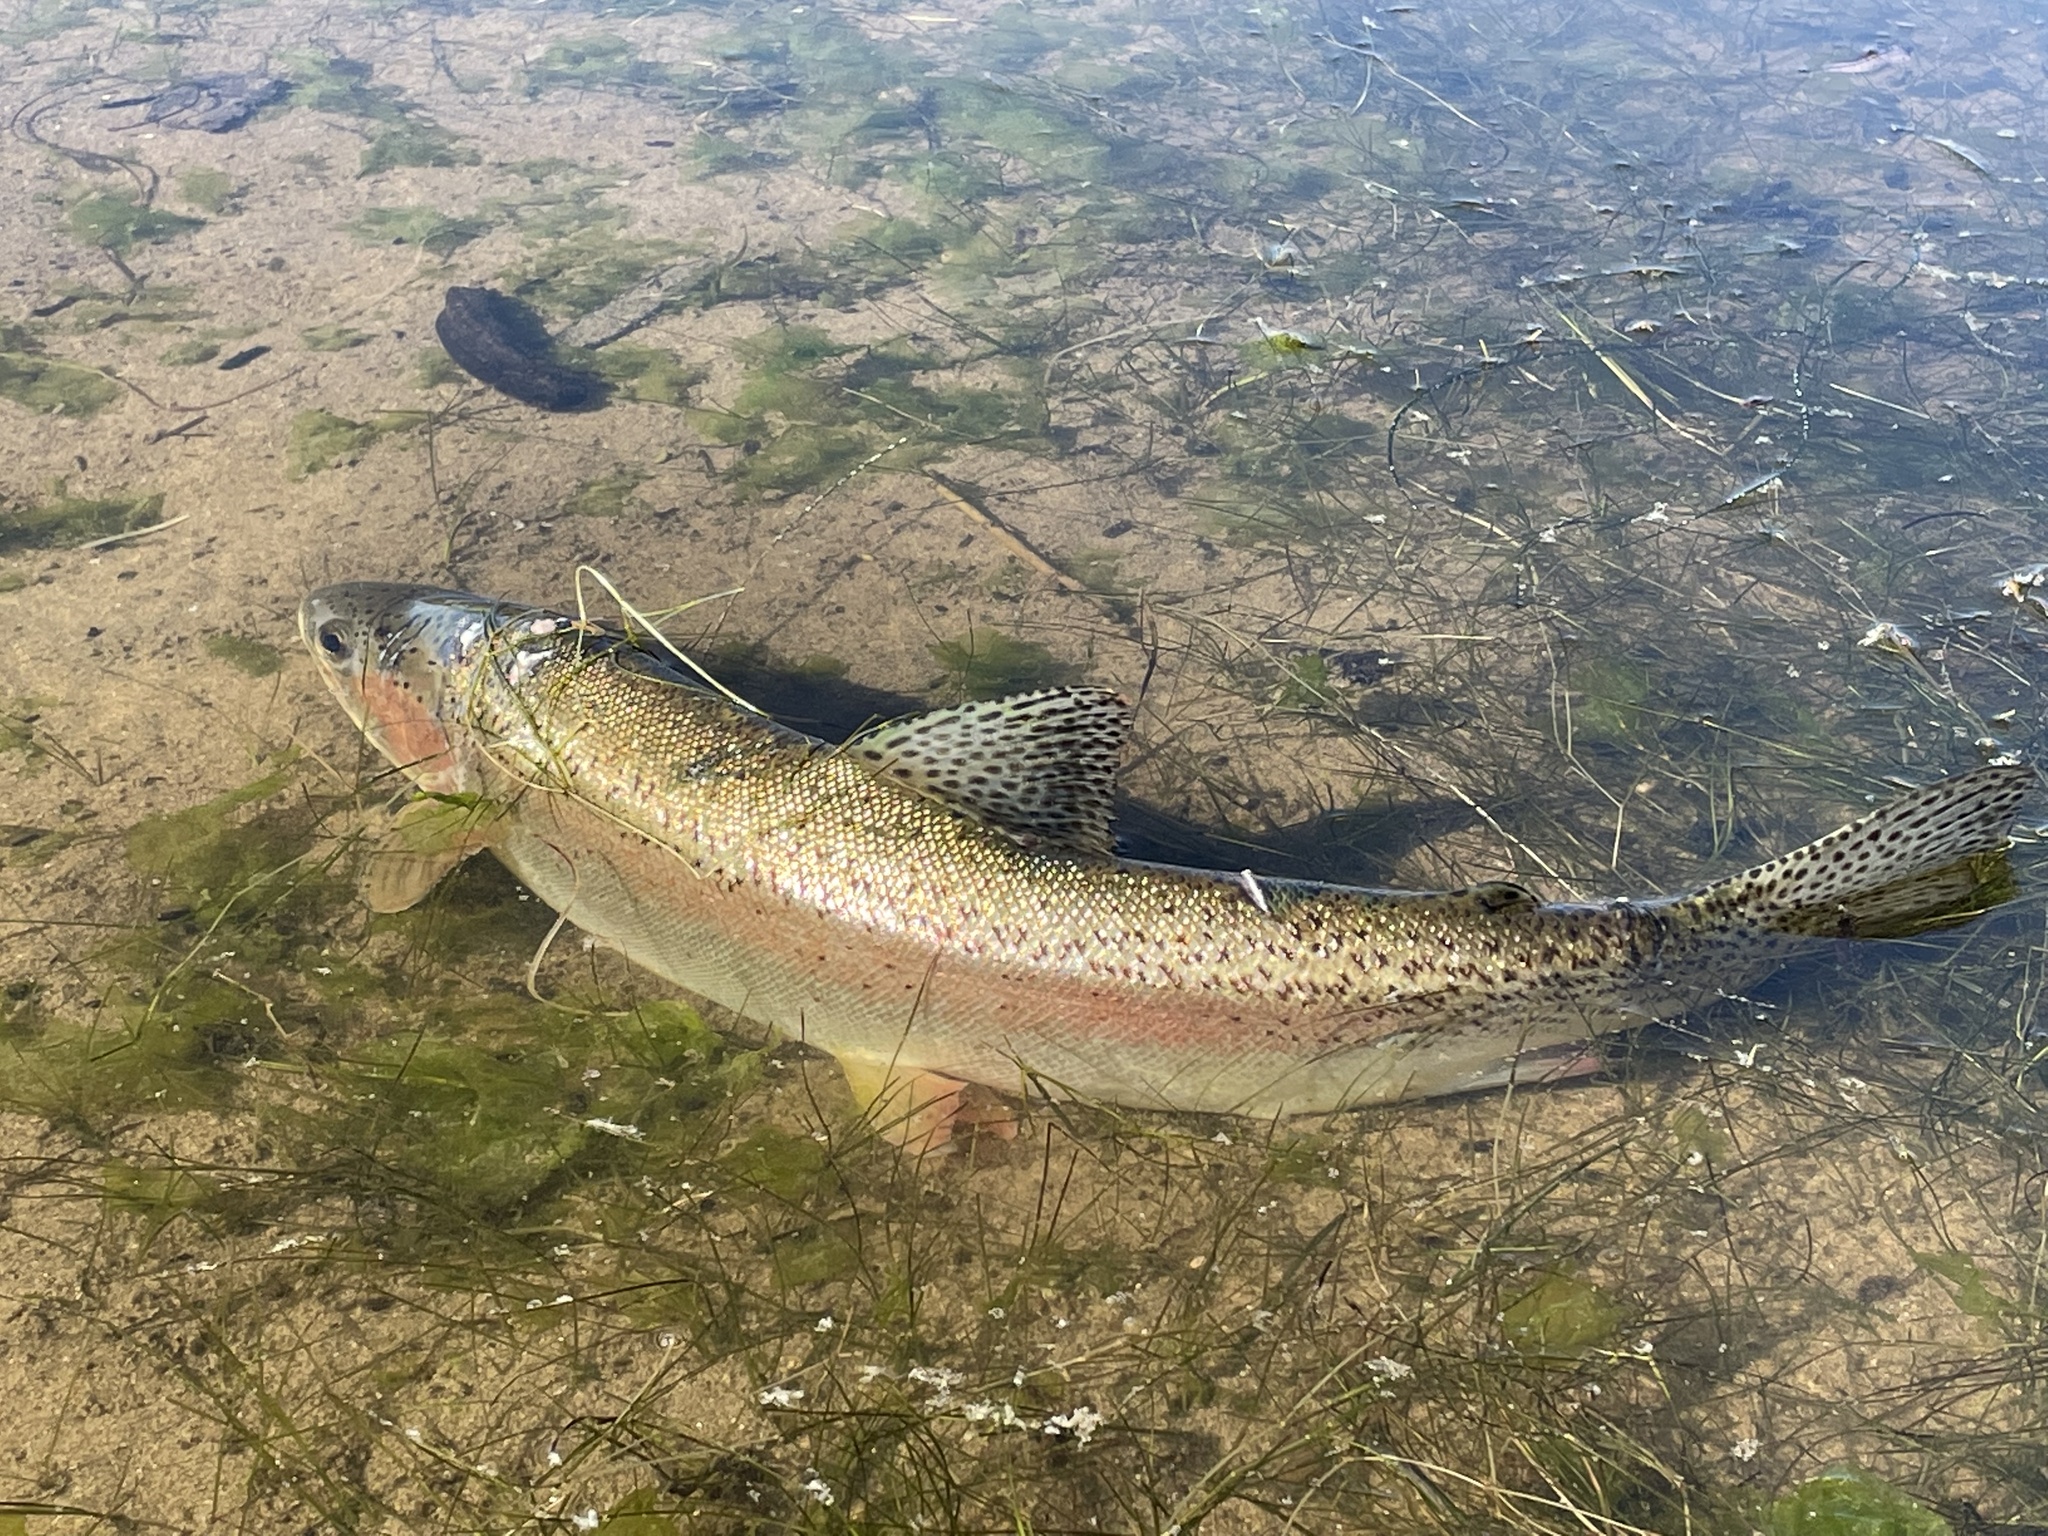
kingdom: Animalia
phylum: Chordata
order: Salmoniformes
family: Salmonidae
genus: Oncorhynchus
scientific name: Oncorhynchus mykiss
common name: Rainbow trout
